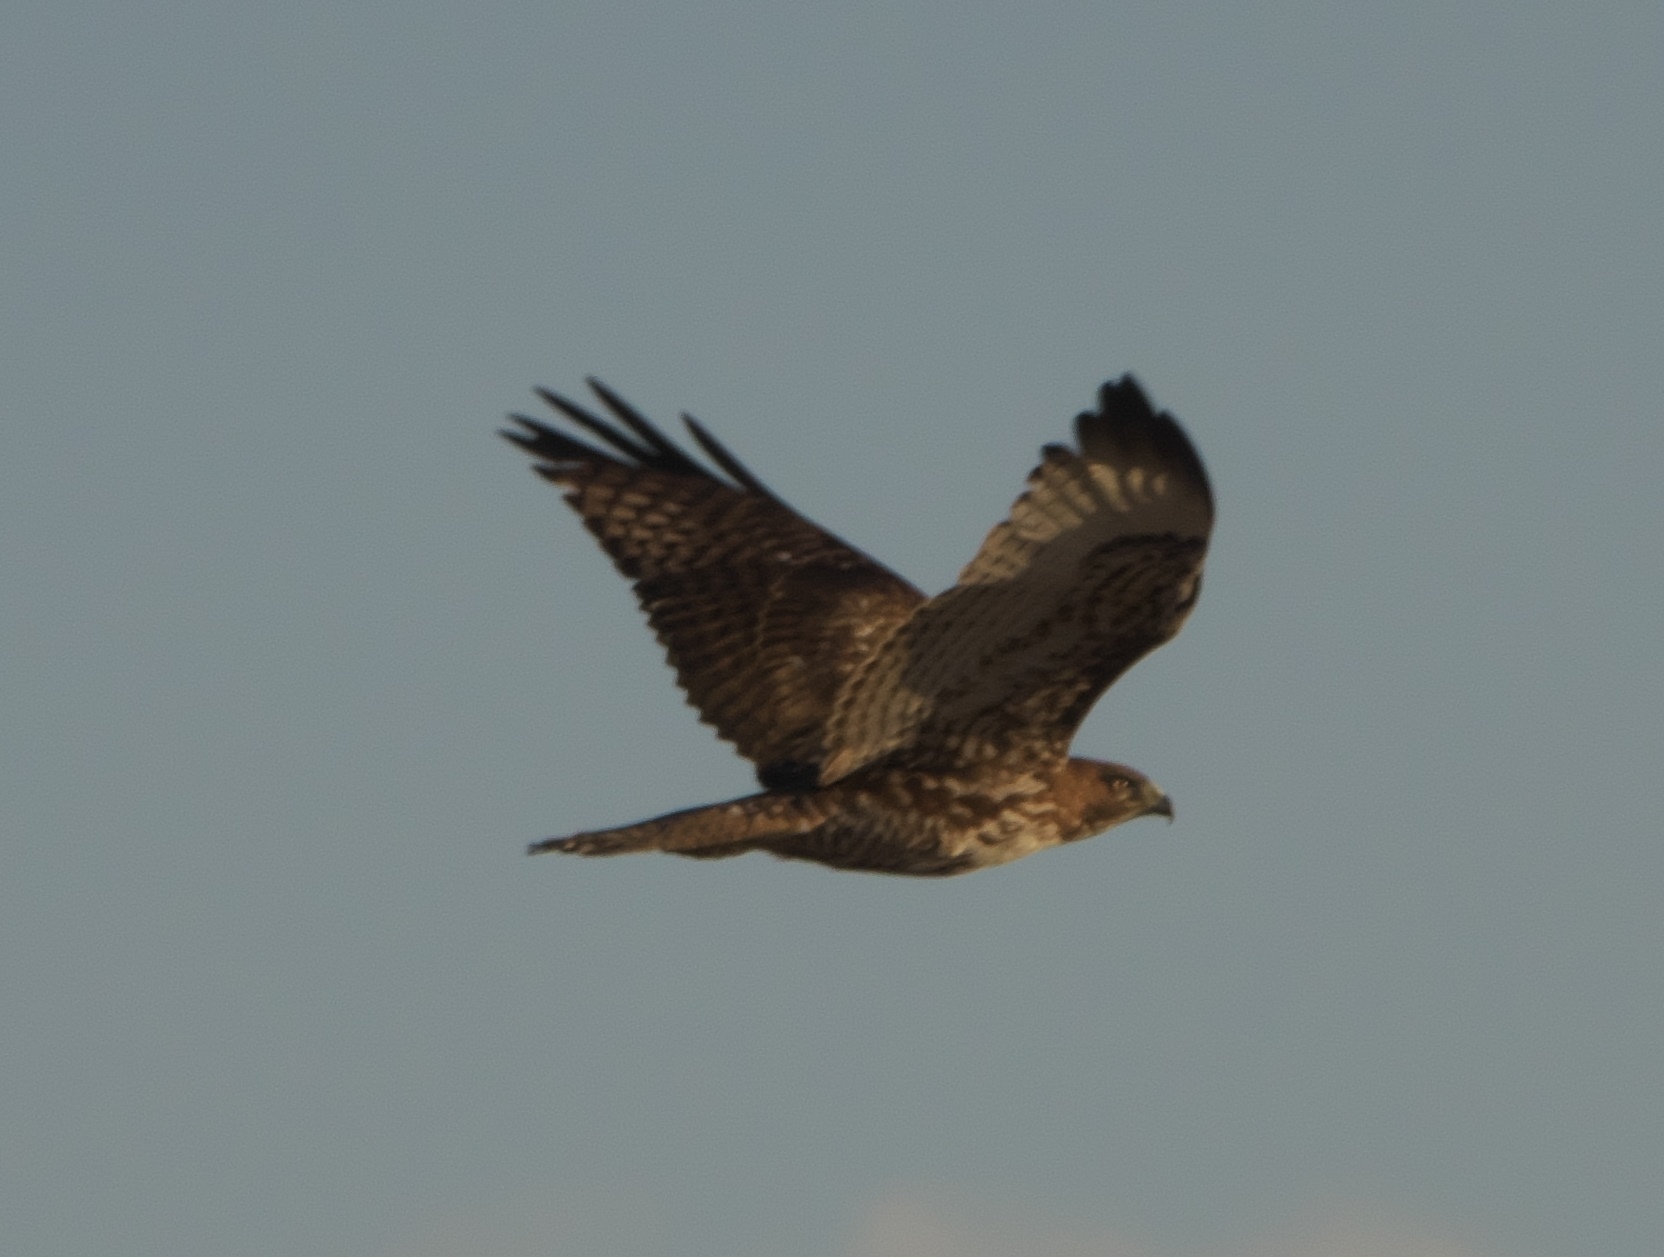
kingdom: Animalia
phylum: Chordata
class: Aves
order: Accipitriformes
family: Accipitridae
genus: Buteo
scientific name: Buteo jamaicensis
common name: Red-tailed hawk
